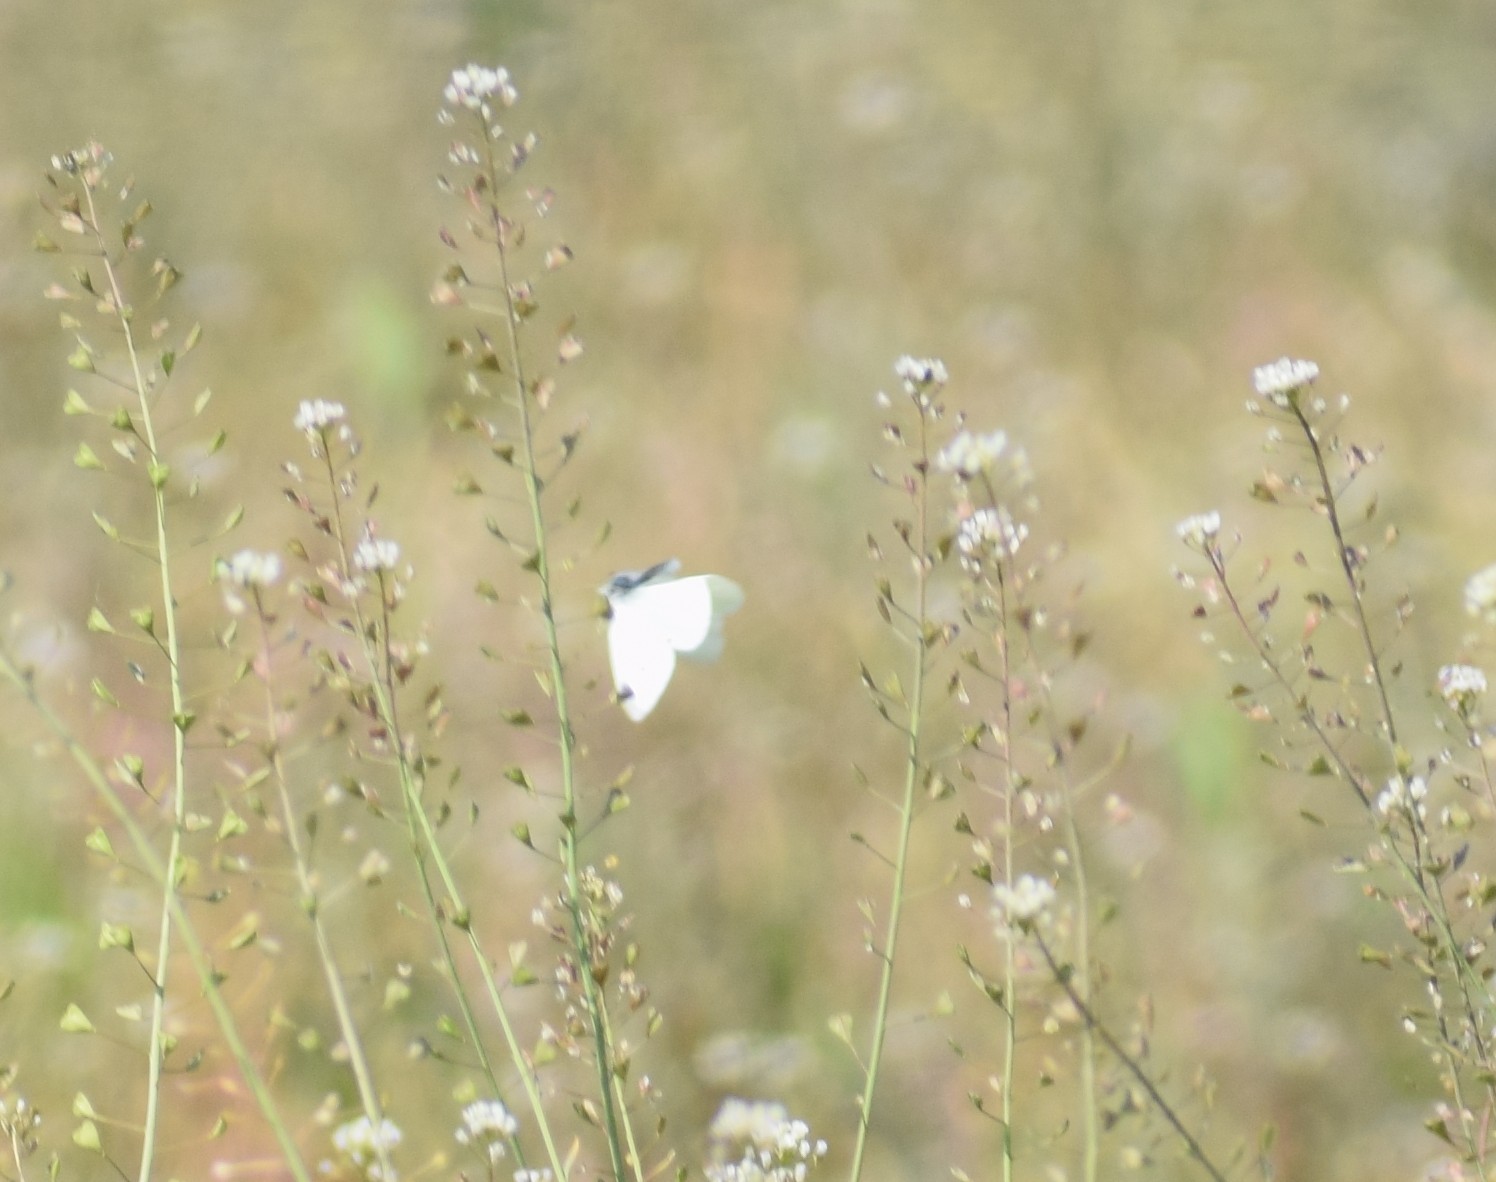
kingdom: Animalia
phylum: Arthropoda
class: Insecta
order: Lepidoptera
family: Pieridae
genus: Pieris
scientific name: Pieris rapae
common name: Small white
